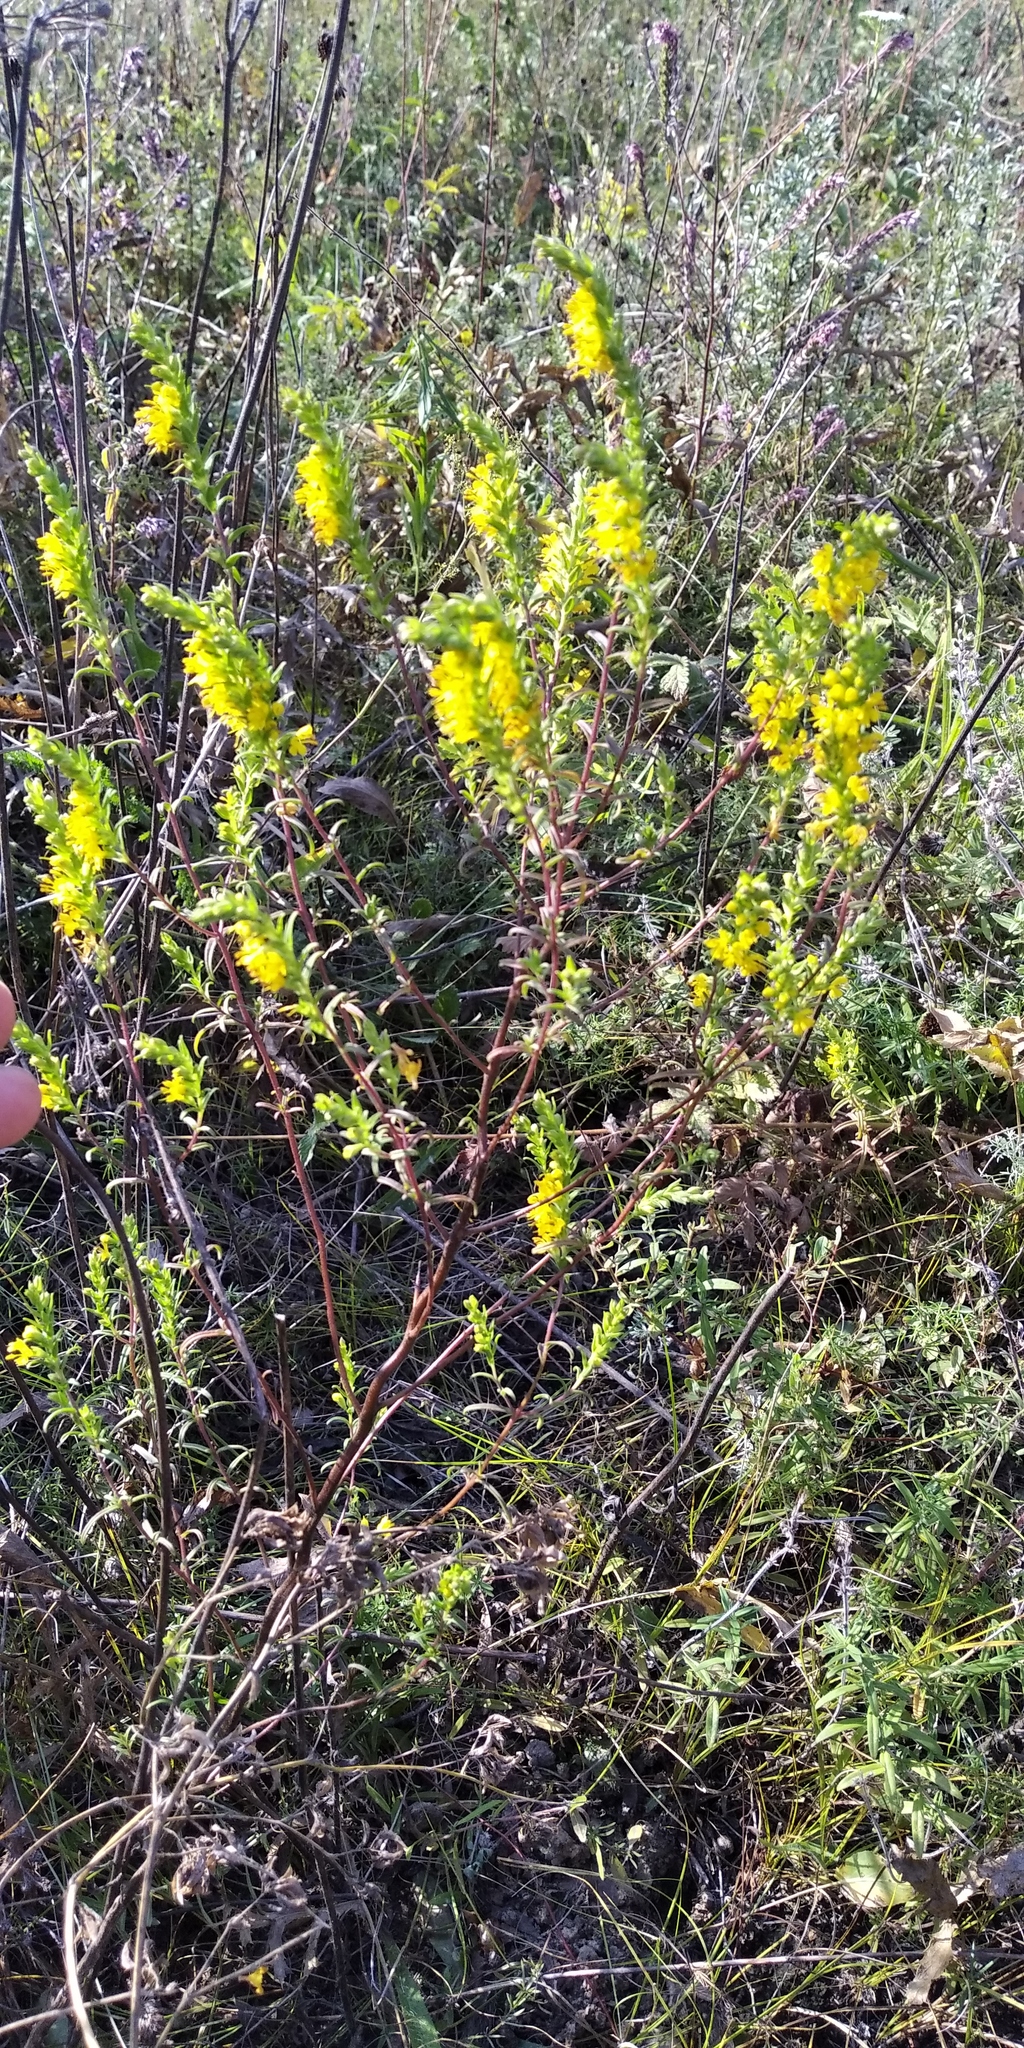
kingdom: Plantae
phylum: Tracheophyta
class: Magnoliopsida
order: Lamiales
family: Orobanchaceae
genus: Odontites
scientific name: Odontites luteus
